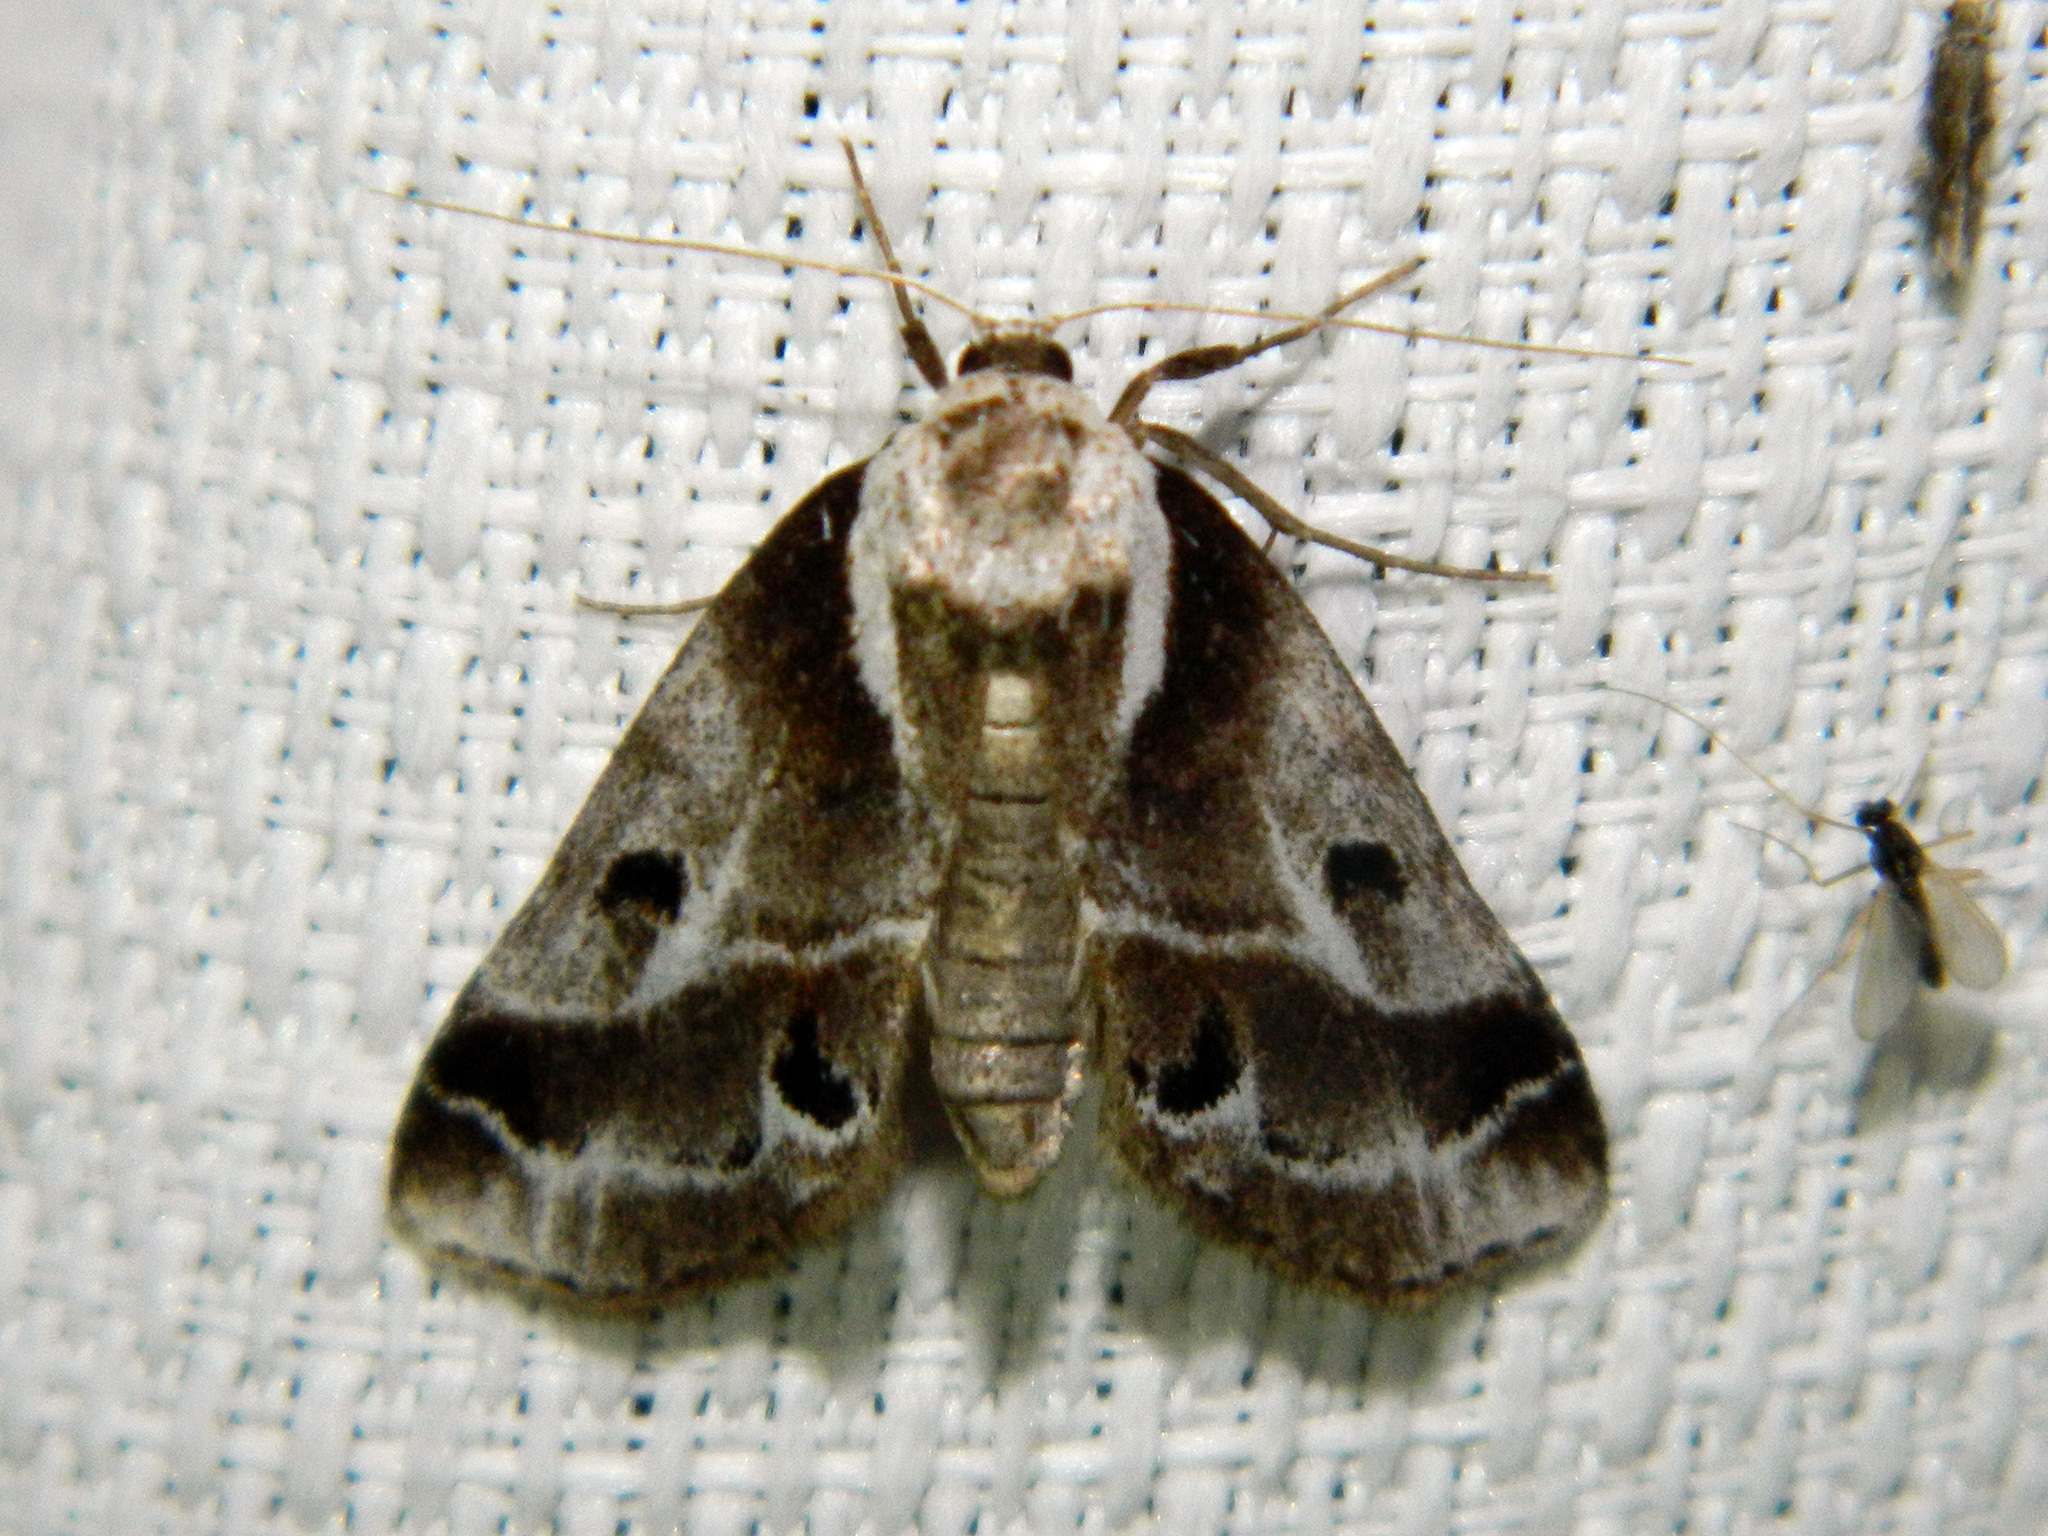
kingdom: Animalia
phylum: Arthropoda
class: Insecta
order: Lepidoptera
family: Nolidae
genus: Baileya
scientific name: Baileya doubledayi
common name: Doubleday's baileya moth
